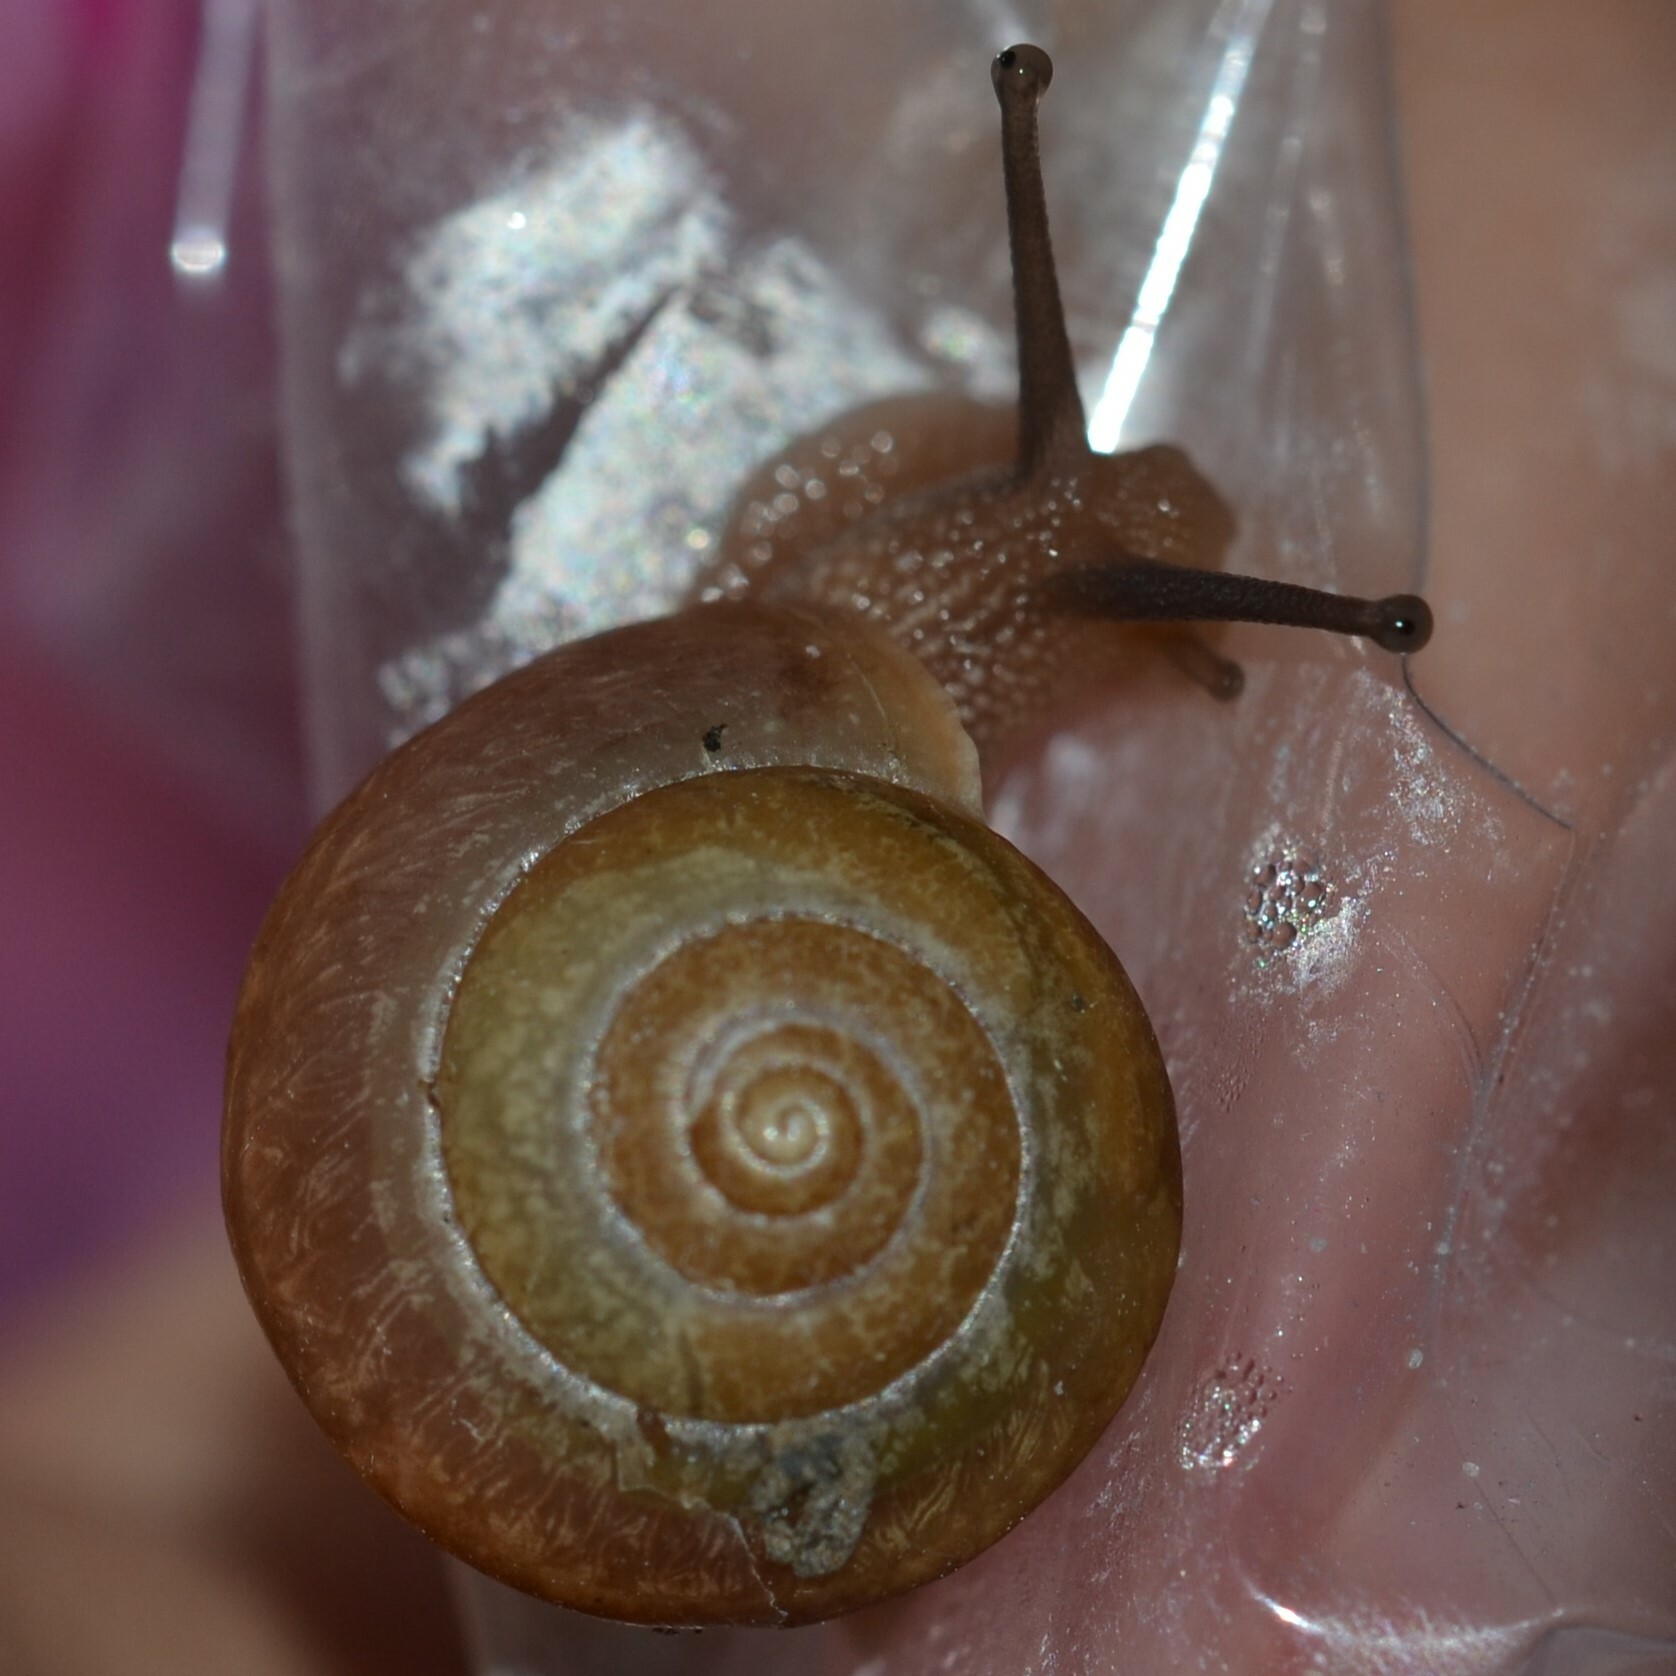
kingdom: Animalia
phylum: Mollusca
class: Gastropoda
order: Stylommatophora
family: Camaenidae
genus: Bradybaena
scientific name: Bradybaena similaris
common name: Asian trampsnail
